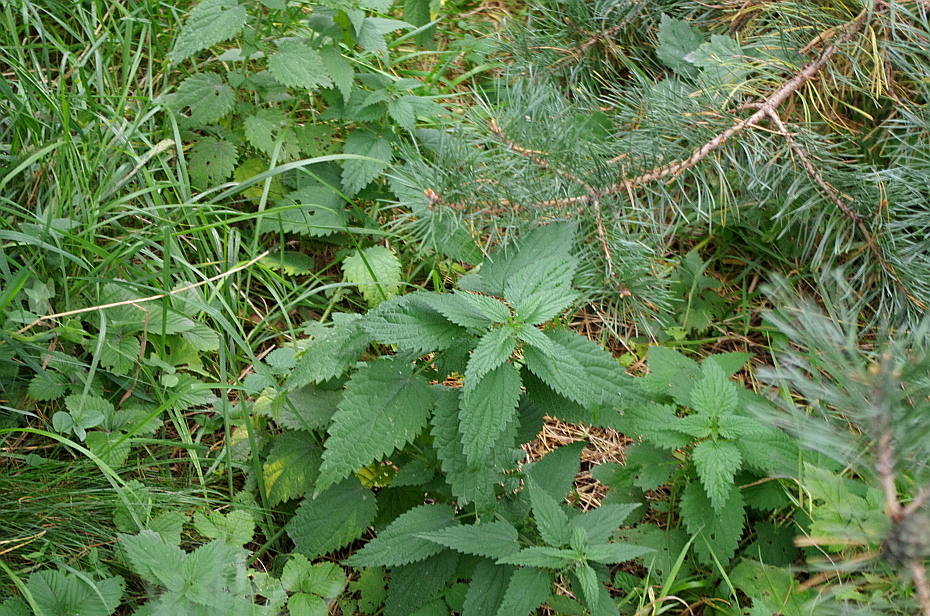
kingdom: Plantae
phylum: Tracheophyta
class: Magnoliopsida
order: Rosales
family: Urticaceae
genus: Urtica
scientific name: Urtica dioica
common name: Common nettle
